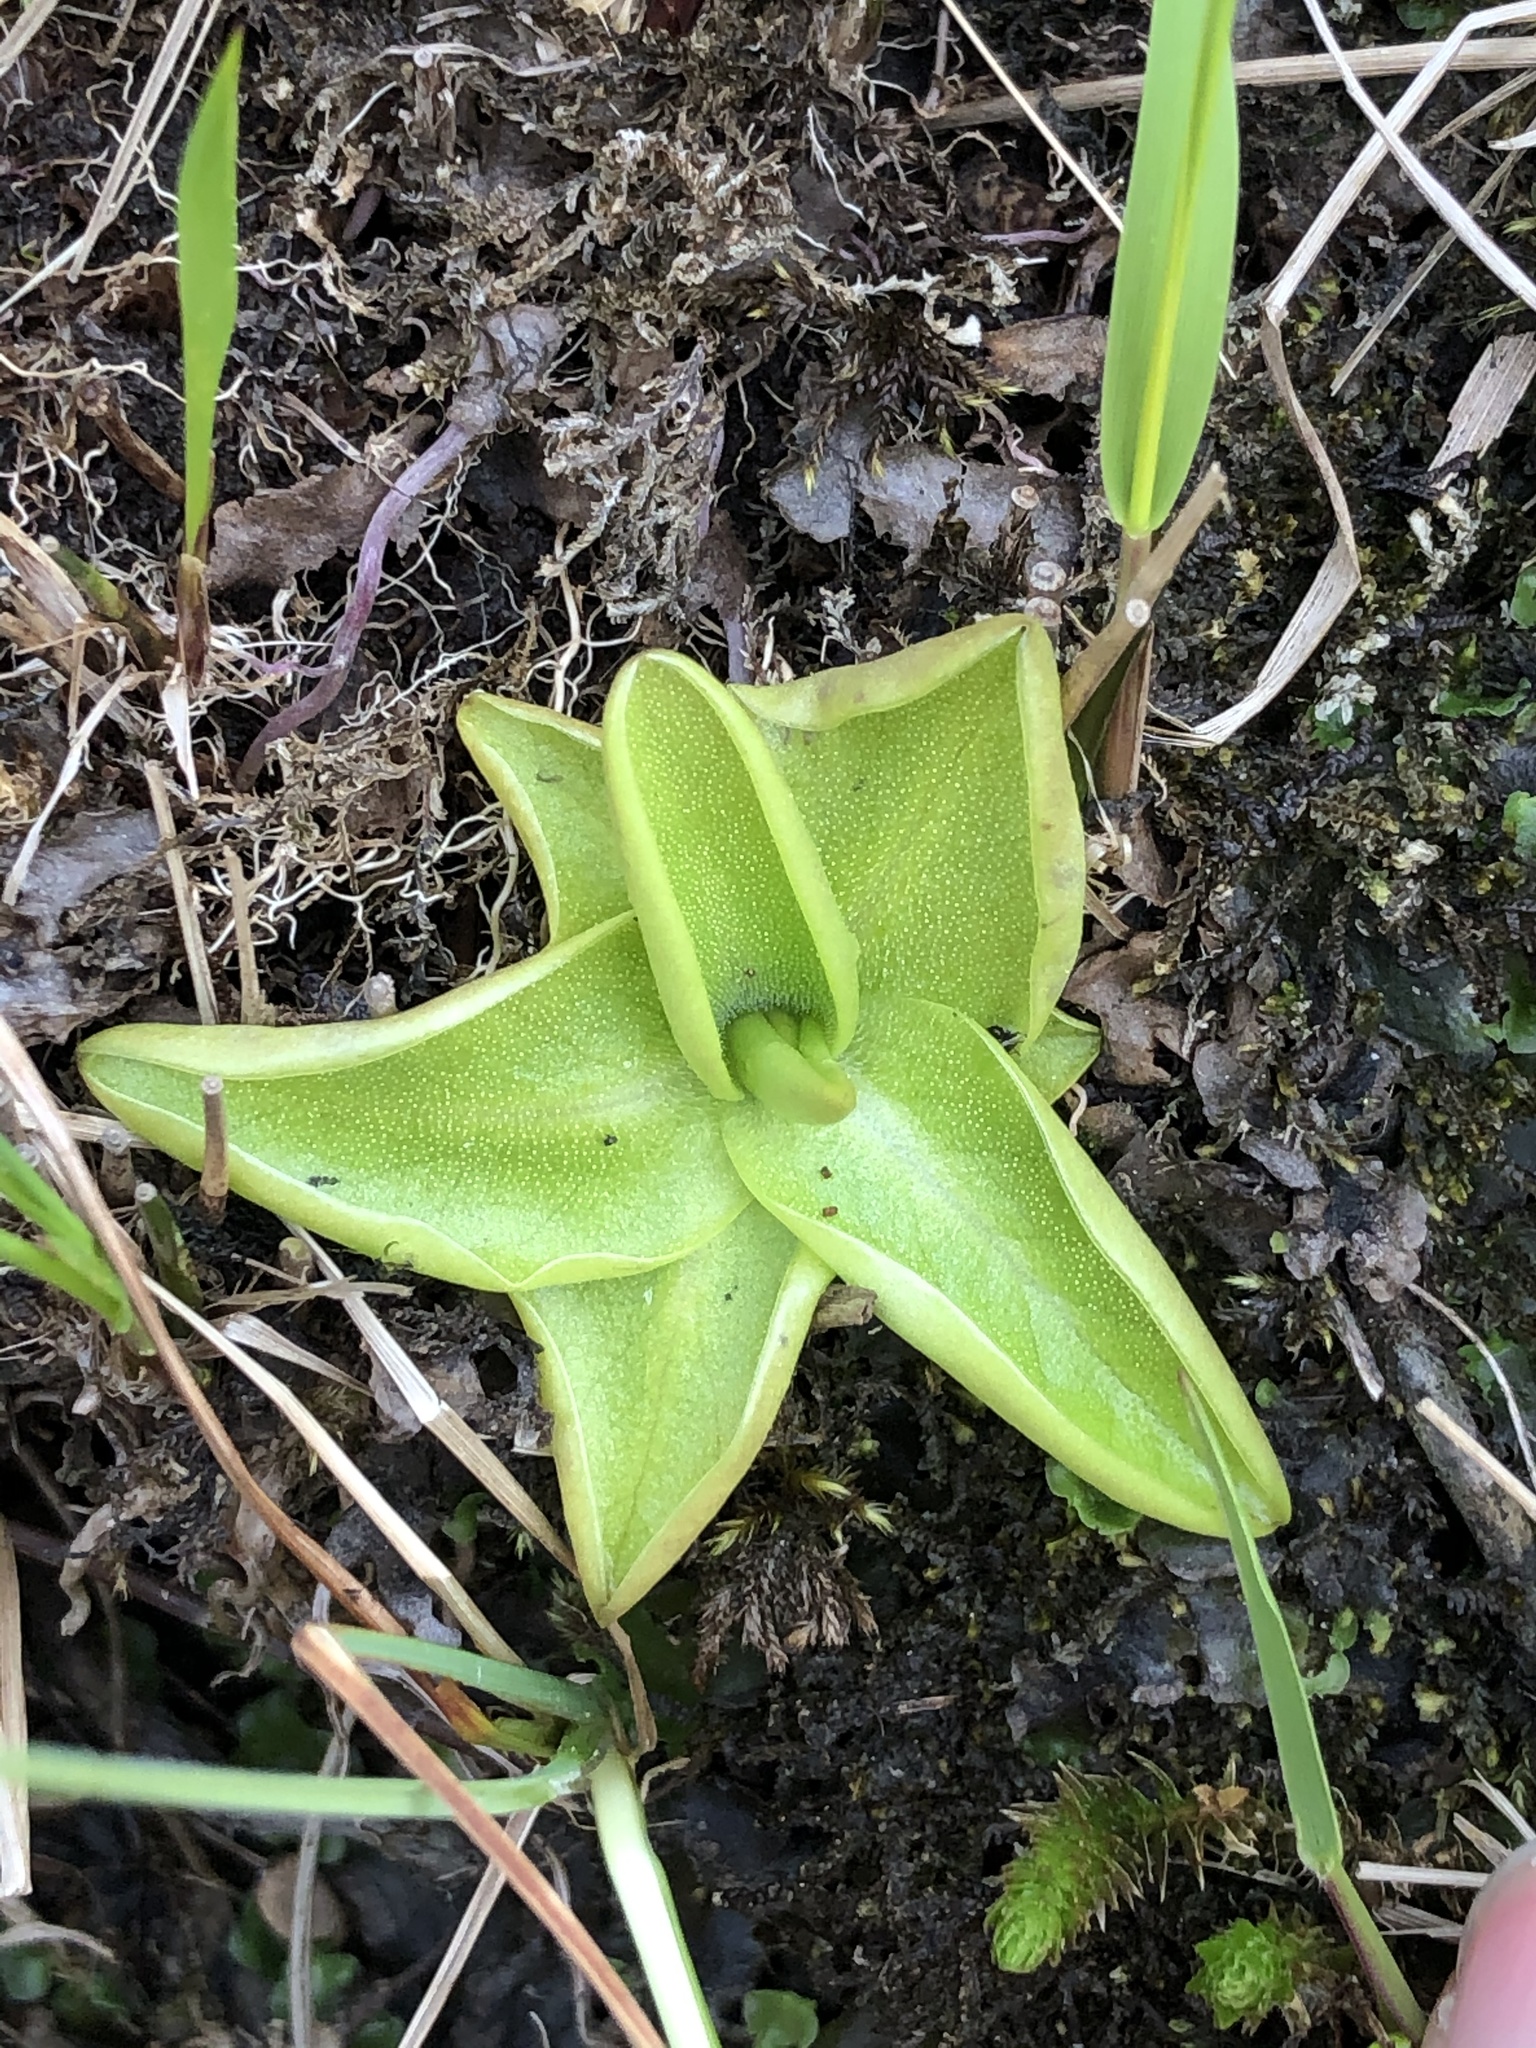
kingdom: Plantae
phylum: Tracheophyta
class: Magnoliopsida
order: Lamiales
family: Lentibulariaceae
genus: Pinguicula
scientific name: Pinguicula vulgaris
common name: Common butterwort
